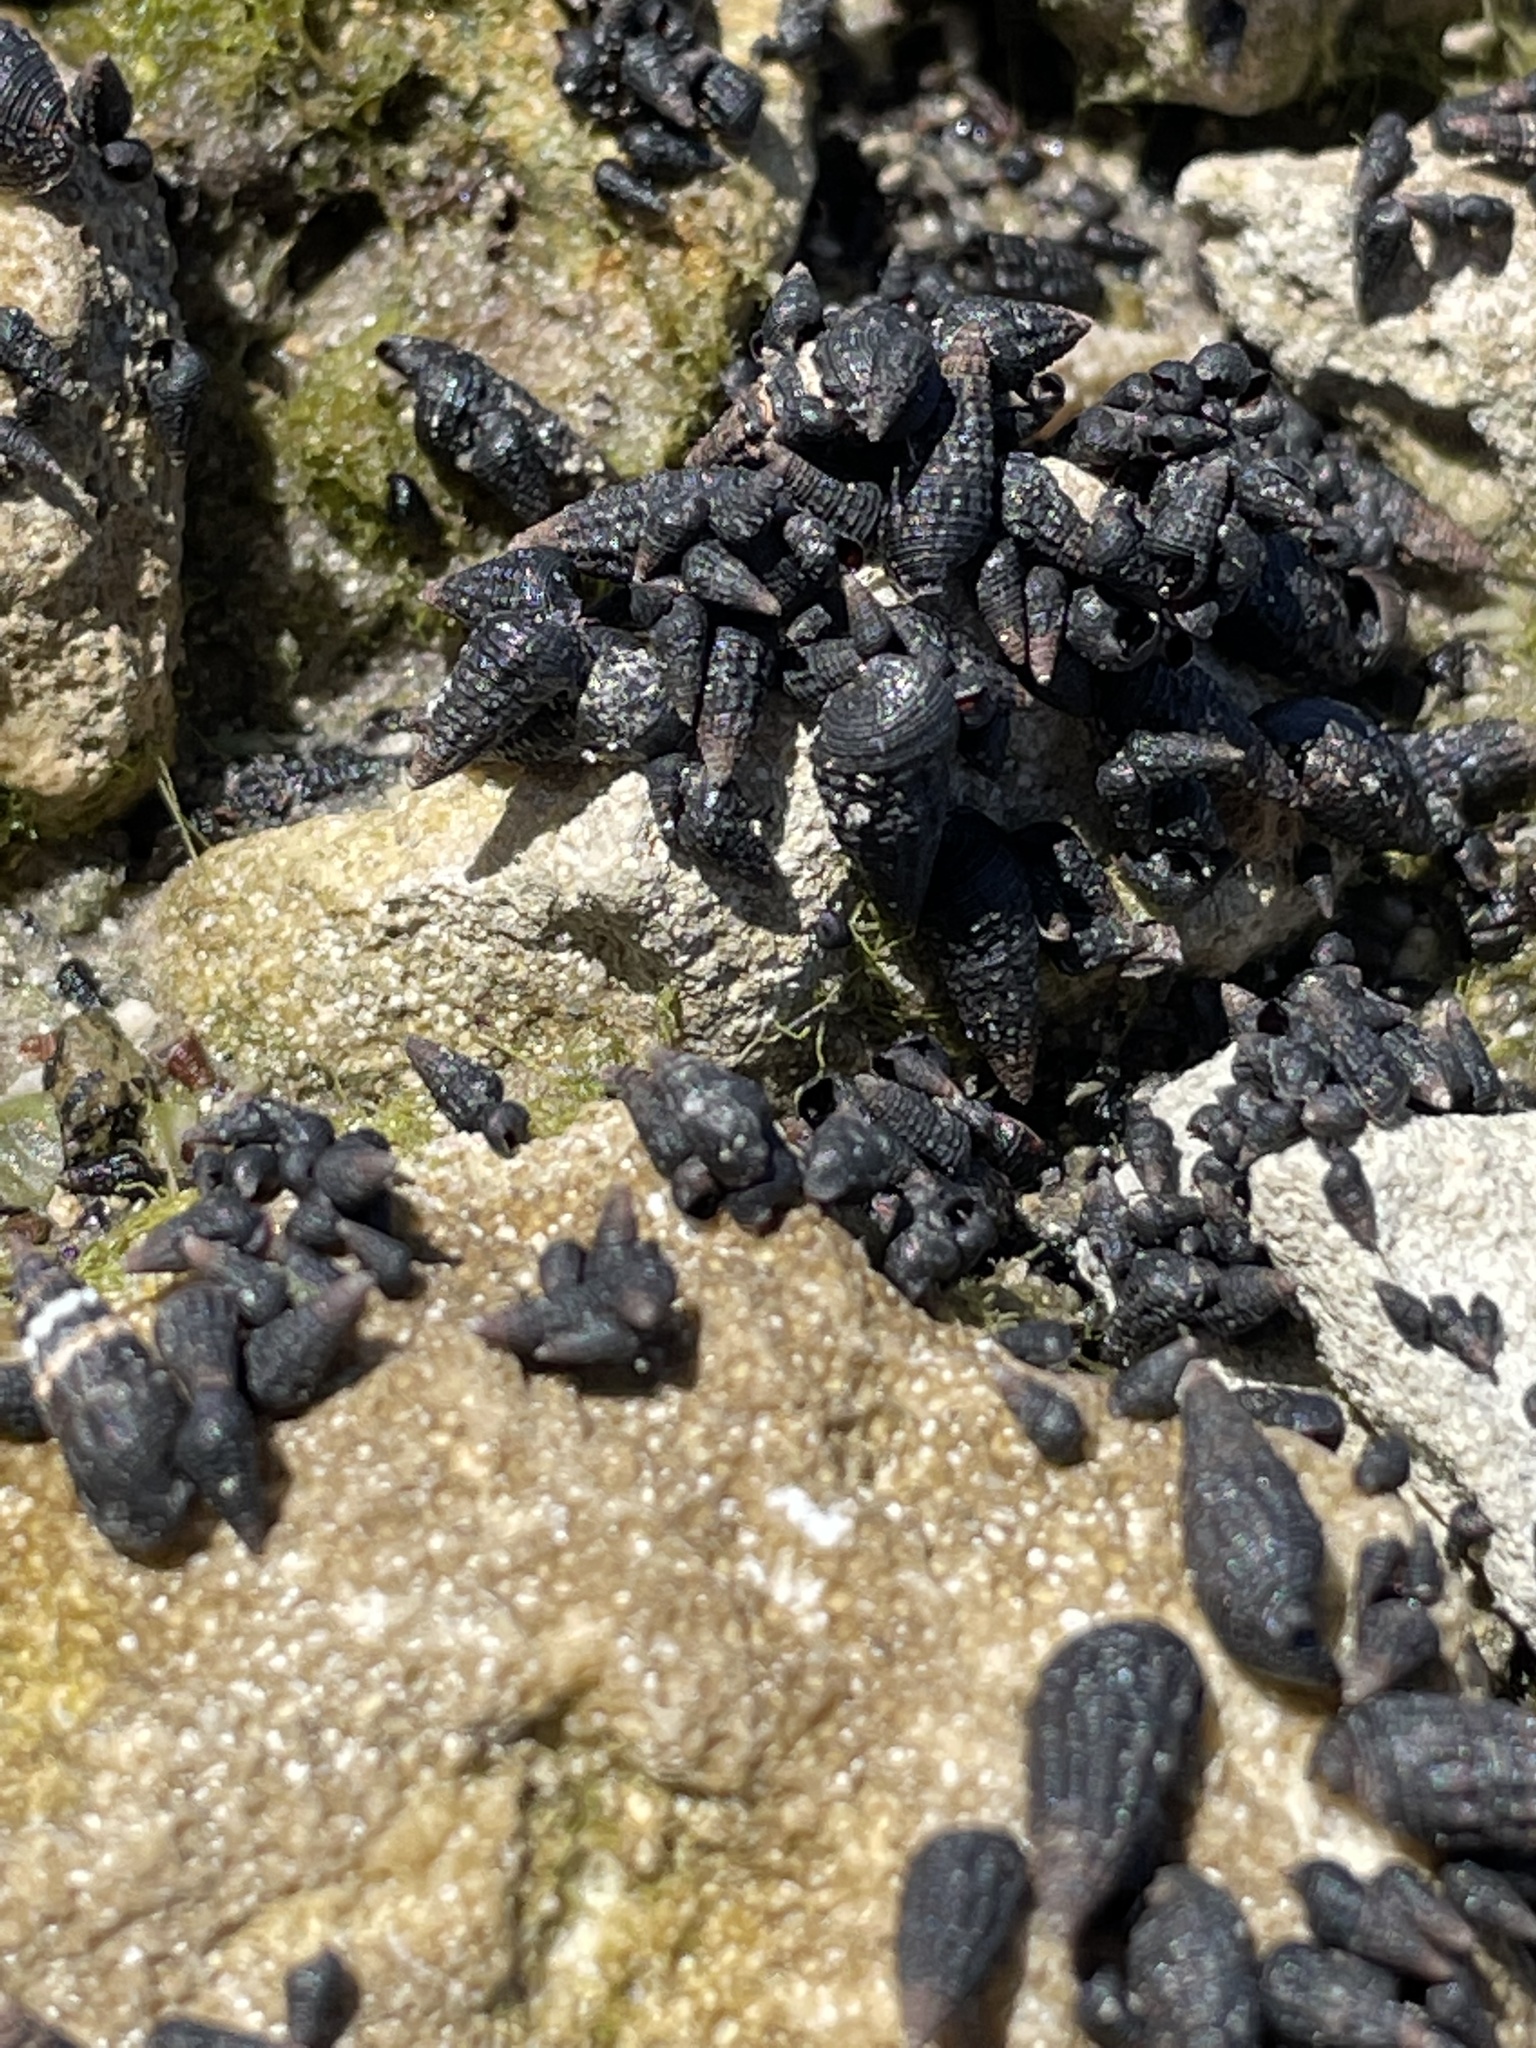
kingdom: Animalia
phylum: Mollusca
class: Gastropoda
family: Batillariidae
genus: Lampanella
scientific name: Lampanella minima
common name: West indian false cerith
